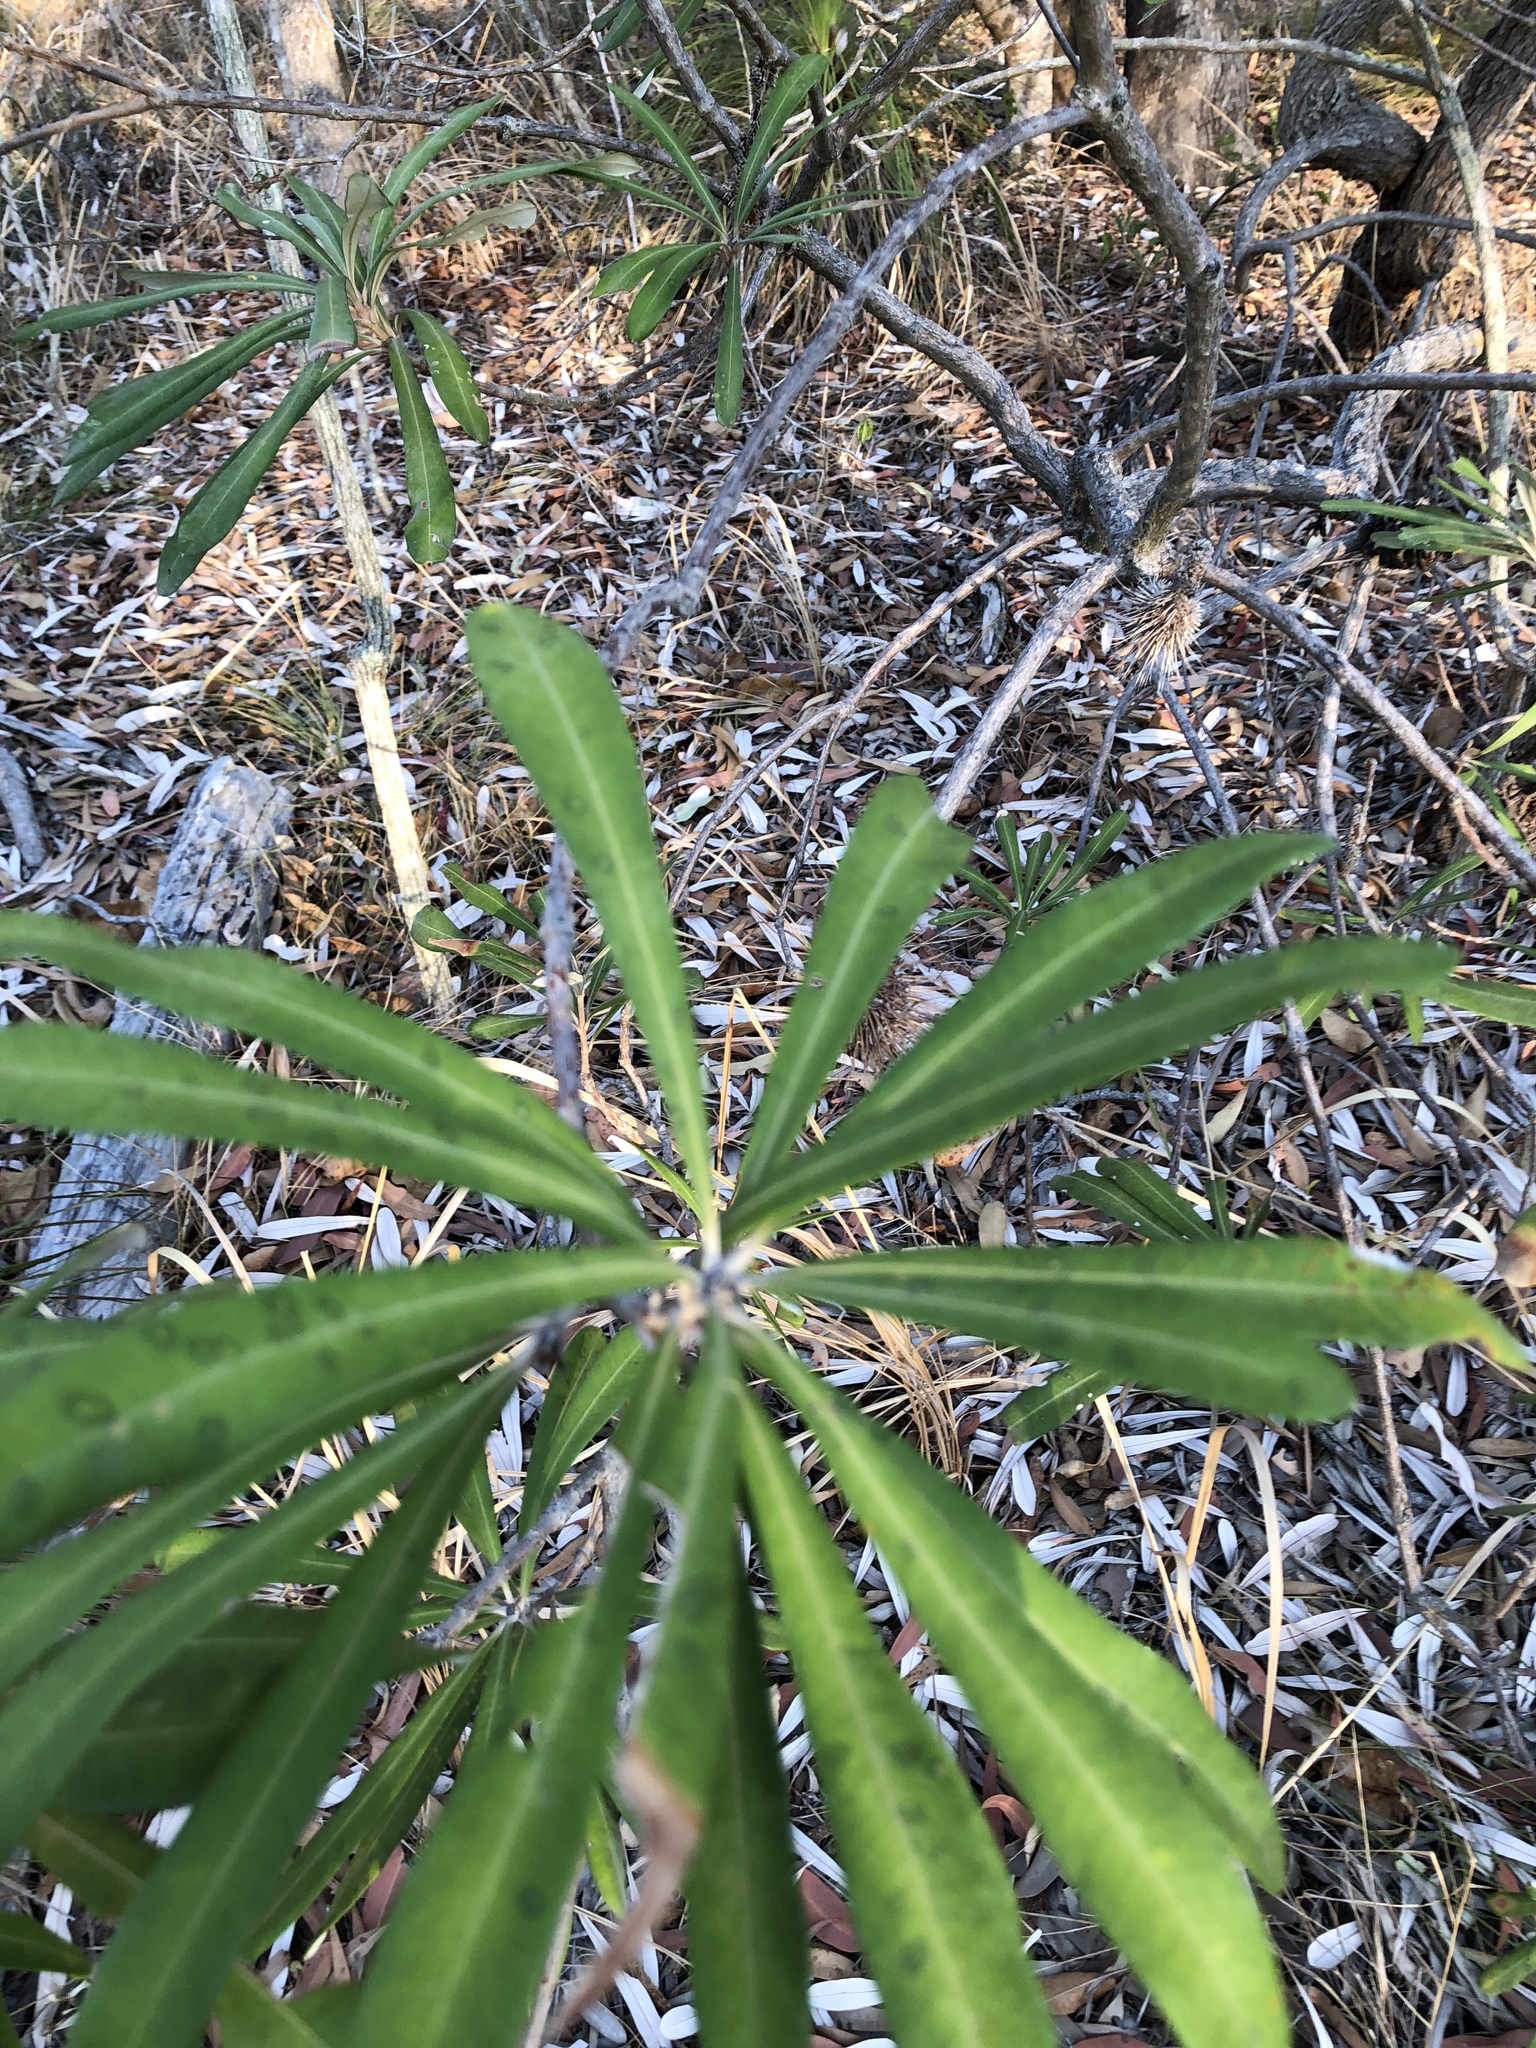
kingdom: Plantae
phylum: Tracheophyta
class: Magnoliopsida
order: Proteales
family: Proteaceae
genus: Banksia
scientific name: Banksia integrifolia
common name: White-honeysuckle
